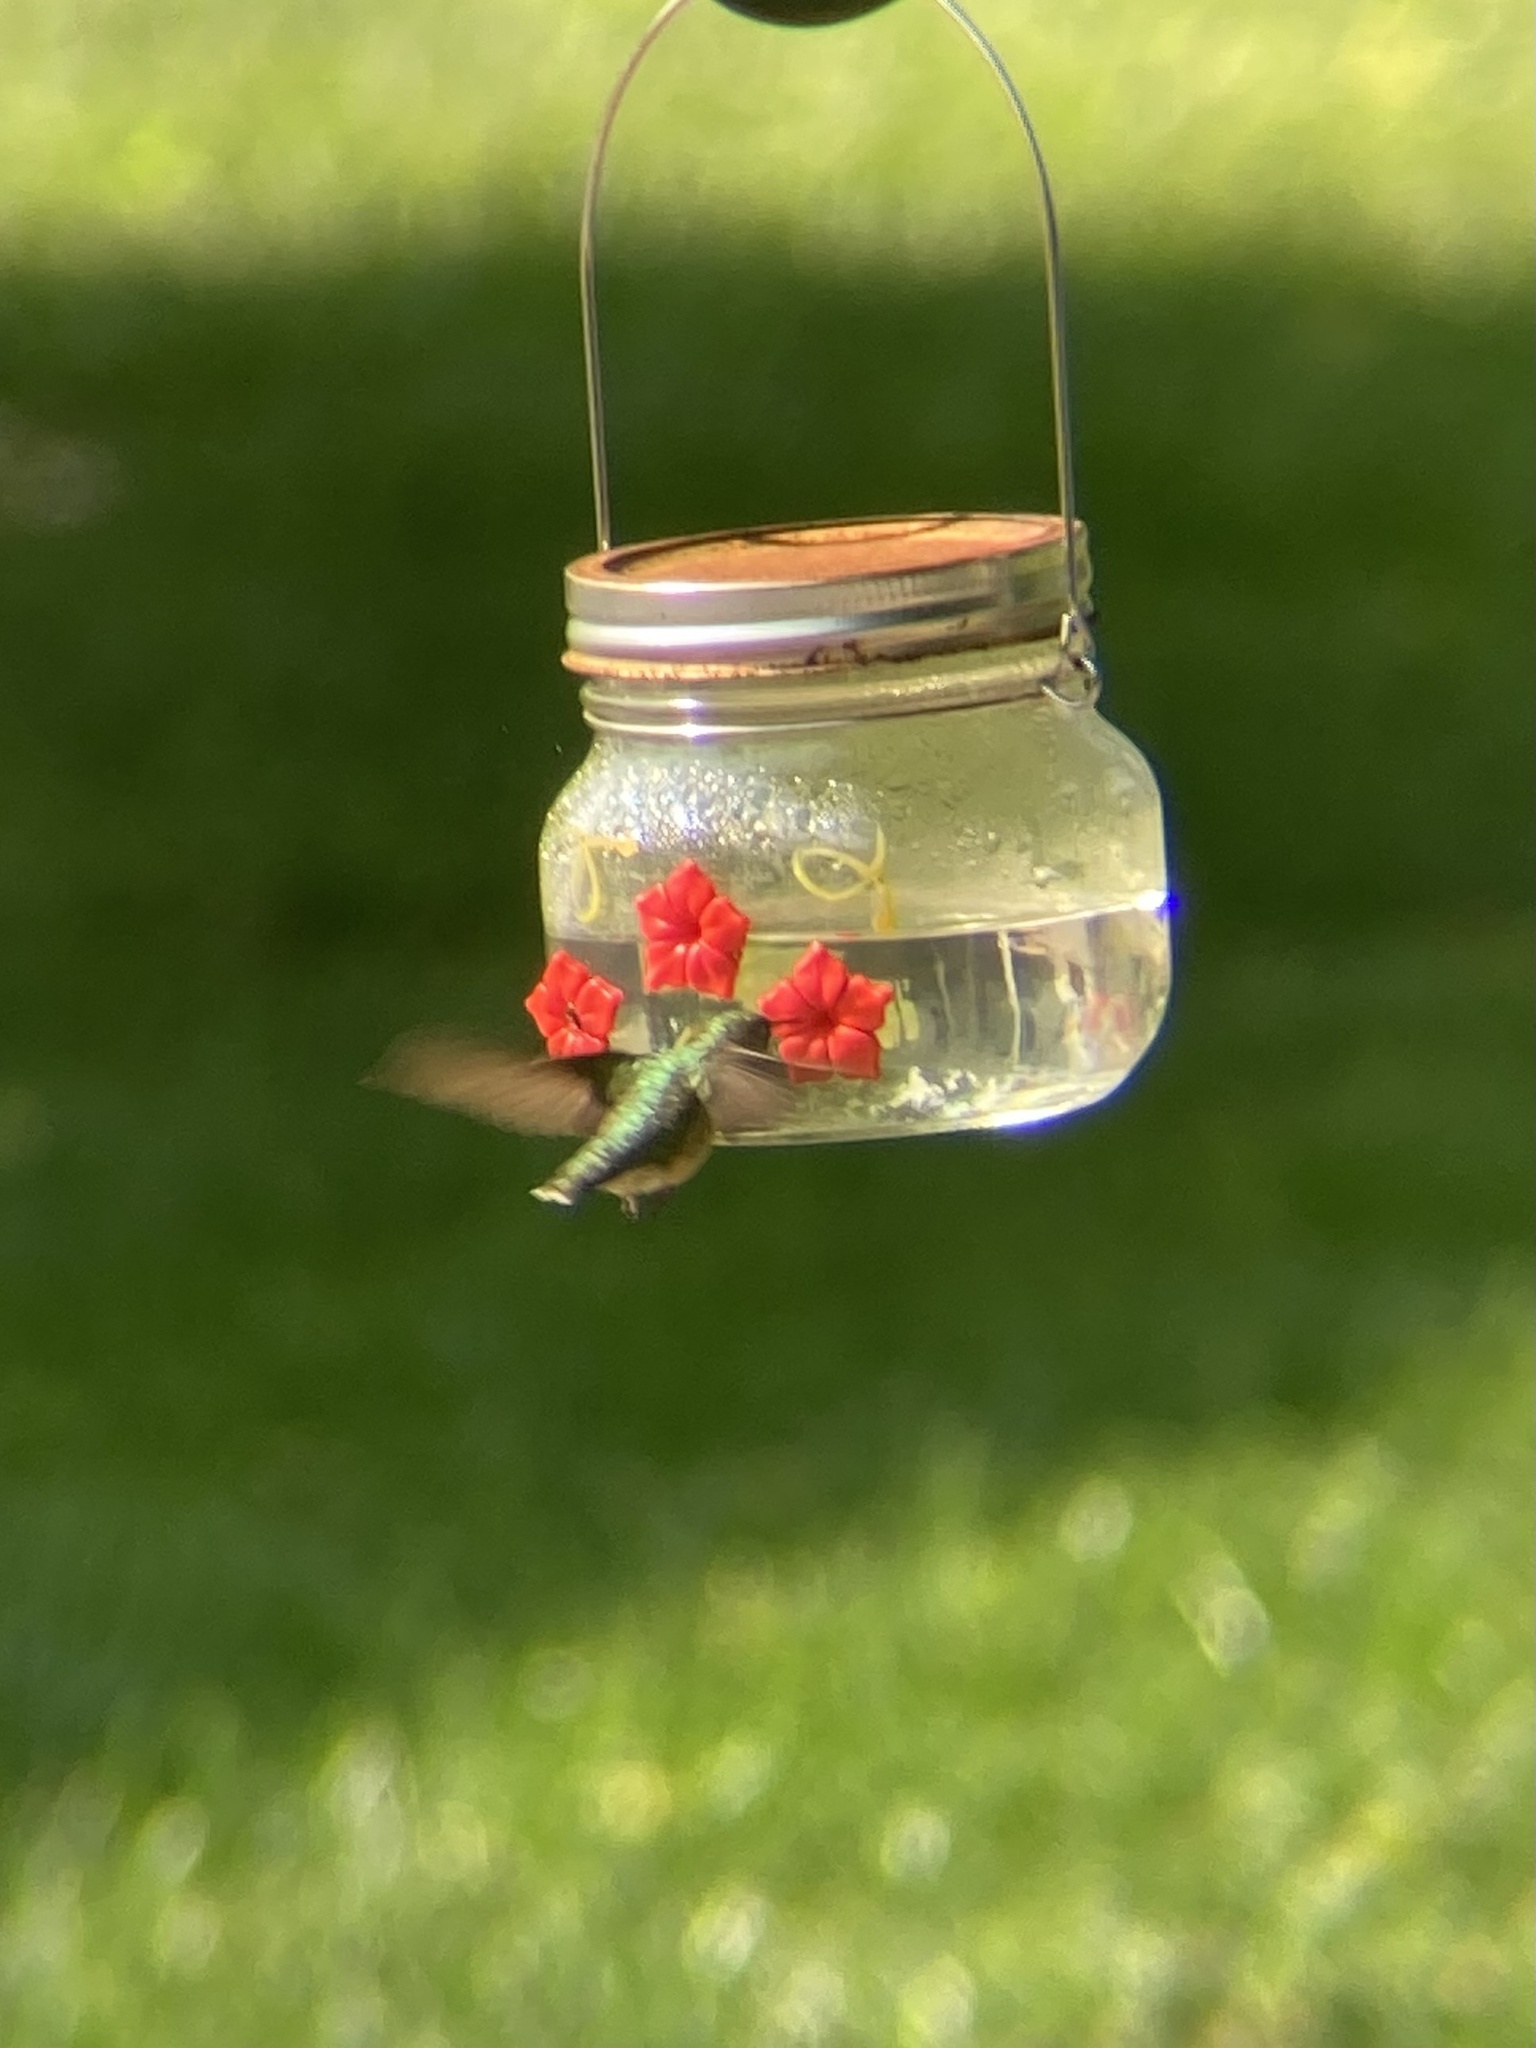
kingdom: Animalia
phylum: Chordata
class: Aves
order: Apodiformes
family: Trochilidae
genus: Archilochus
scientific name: Archilochus colubris
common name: Ruby-throated hummingbird
